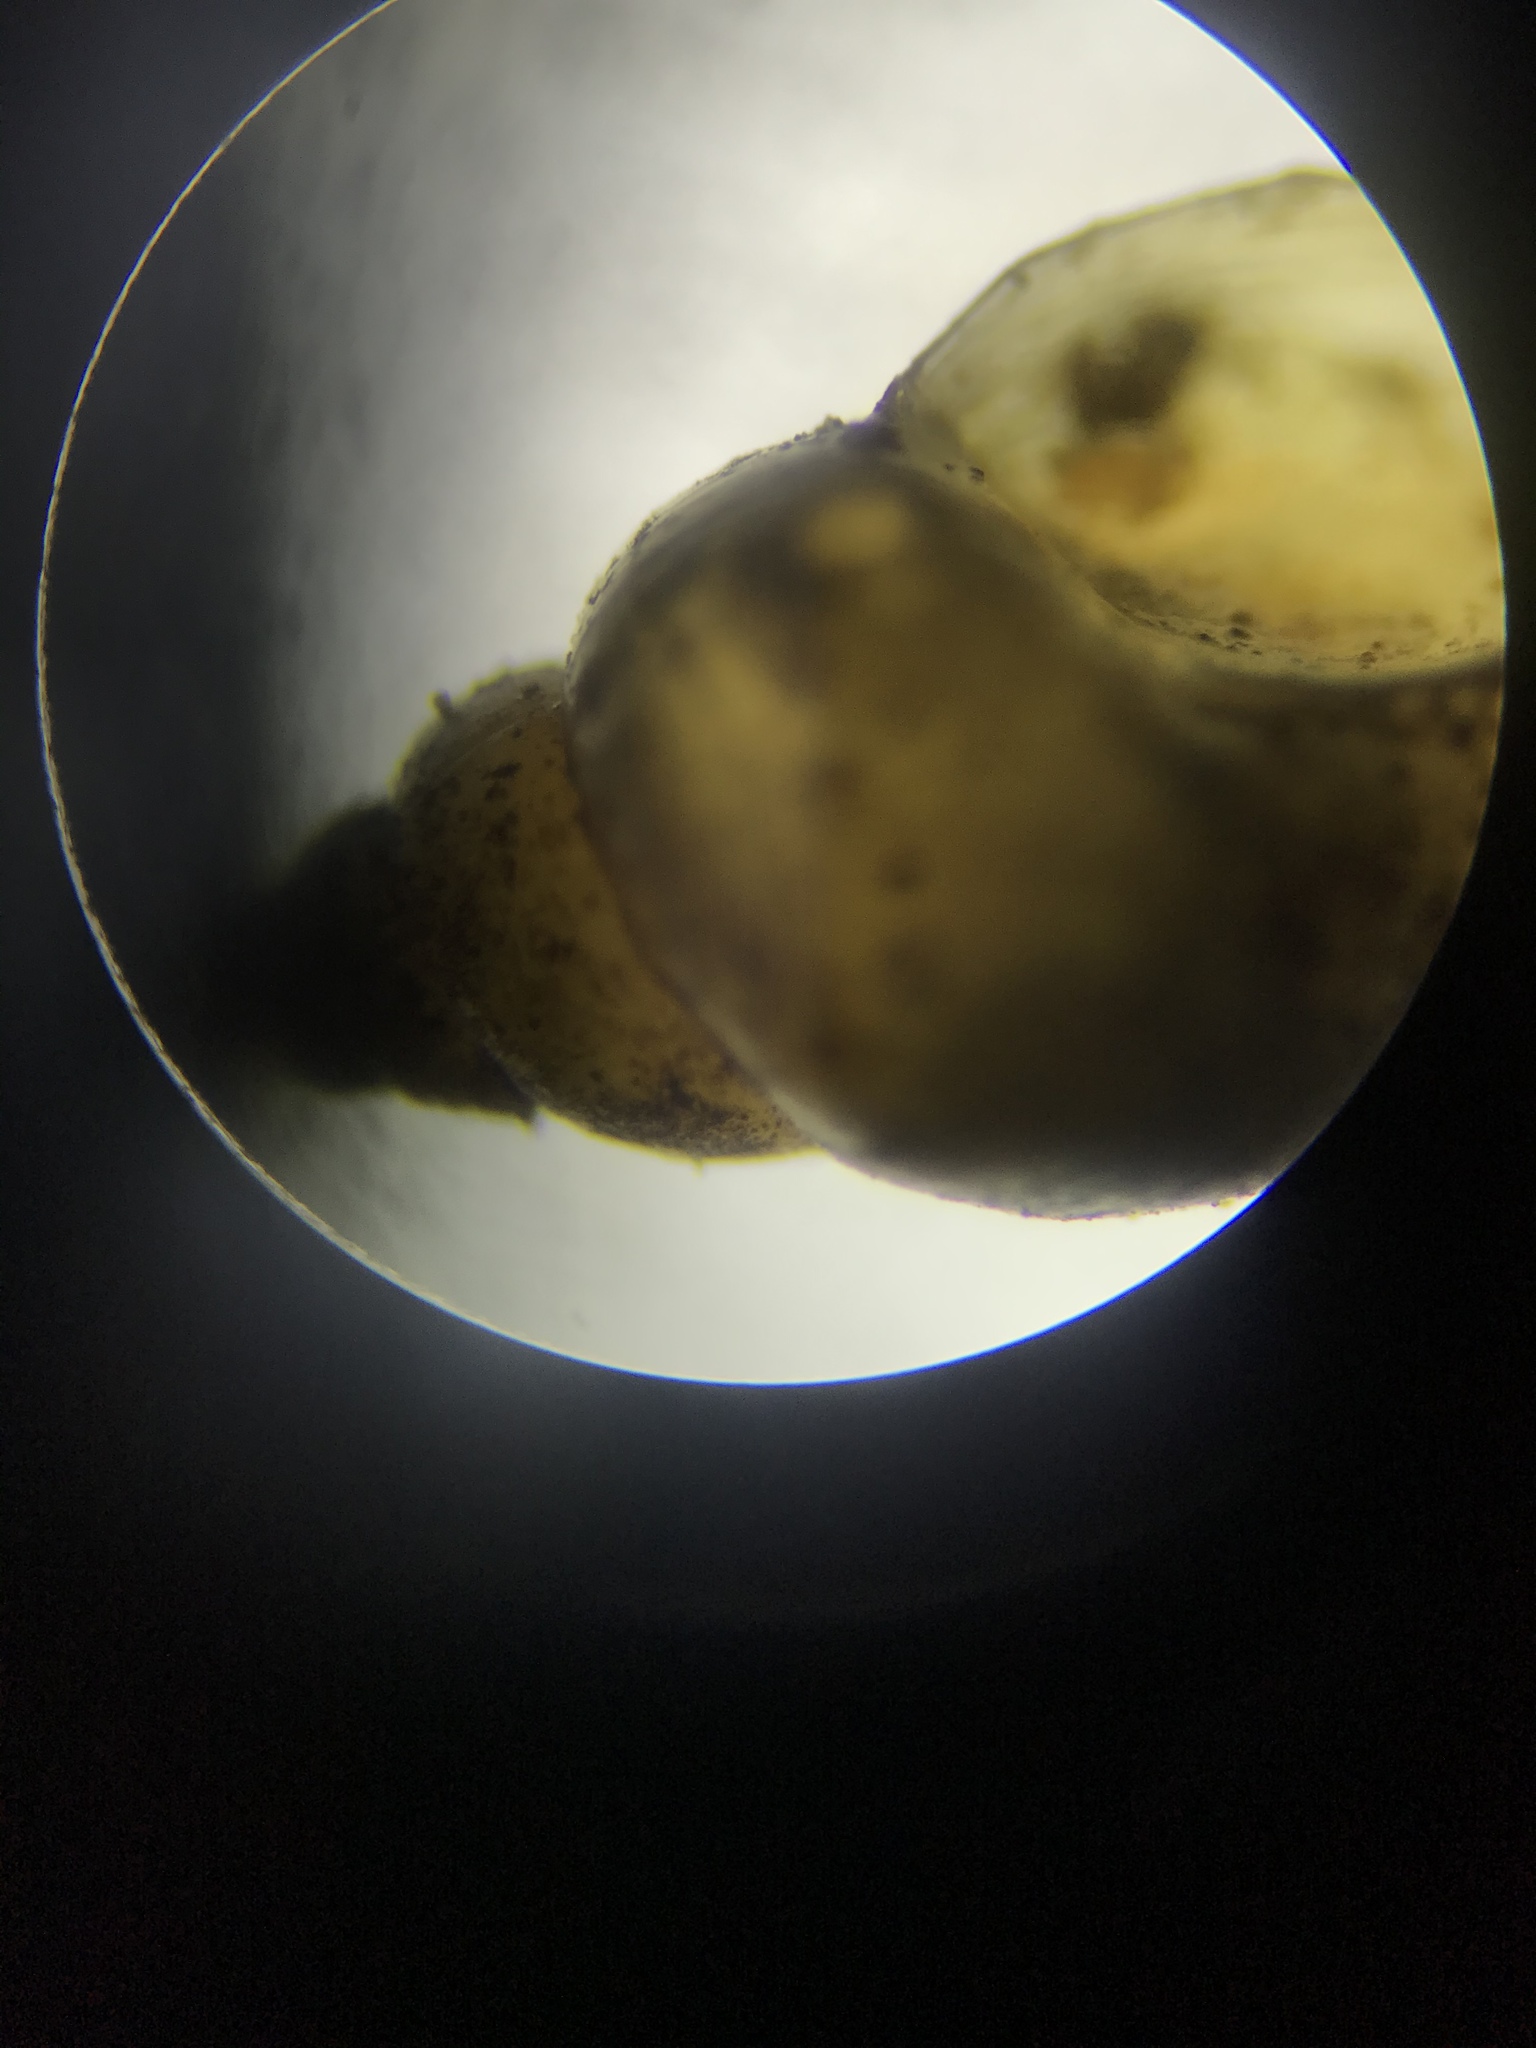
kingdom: Animalia
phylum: Mollusca
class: Gastropoda
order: Littorinimorpha
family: Tateidae
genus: Potamopyrgus
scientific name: Potamopyrgus antipodarum
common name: Jenkins' spire snail
